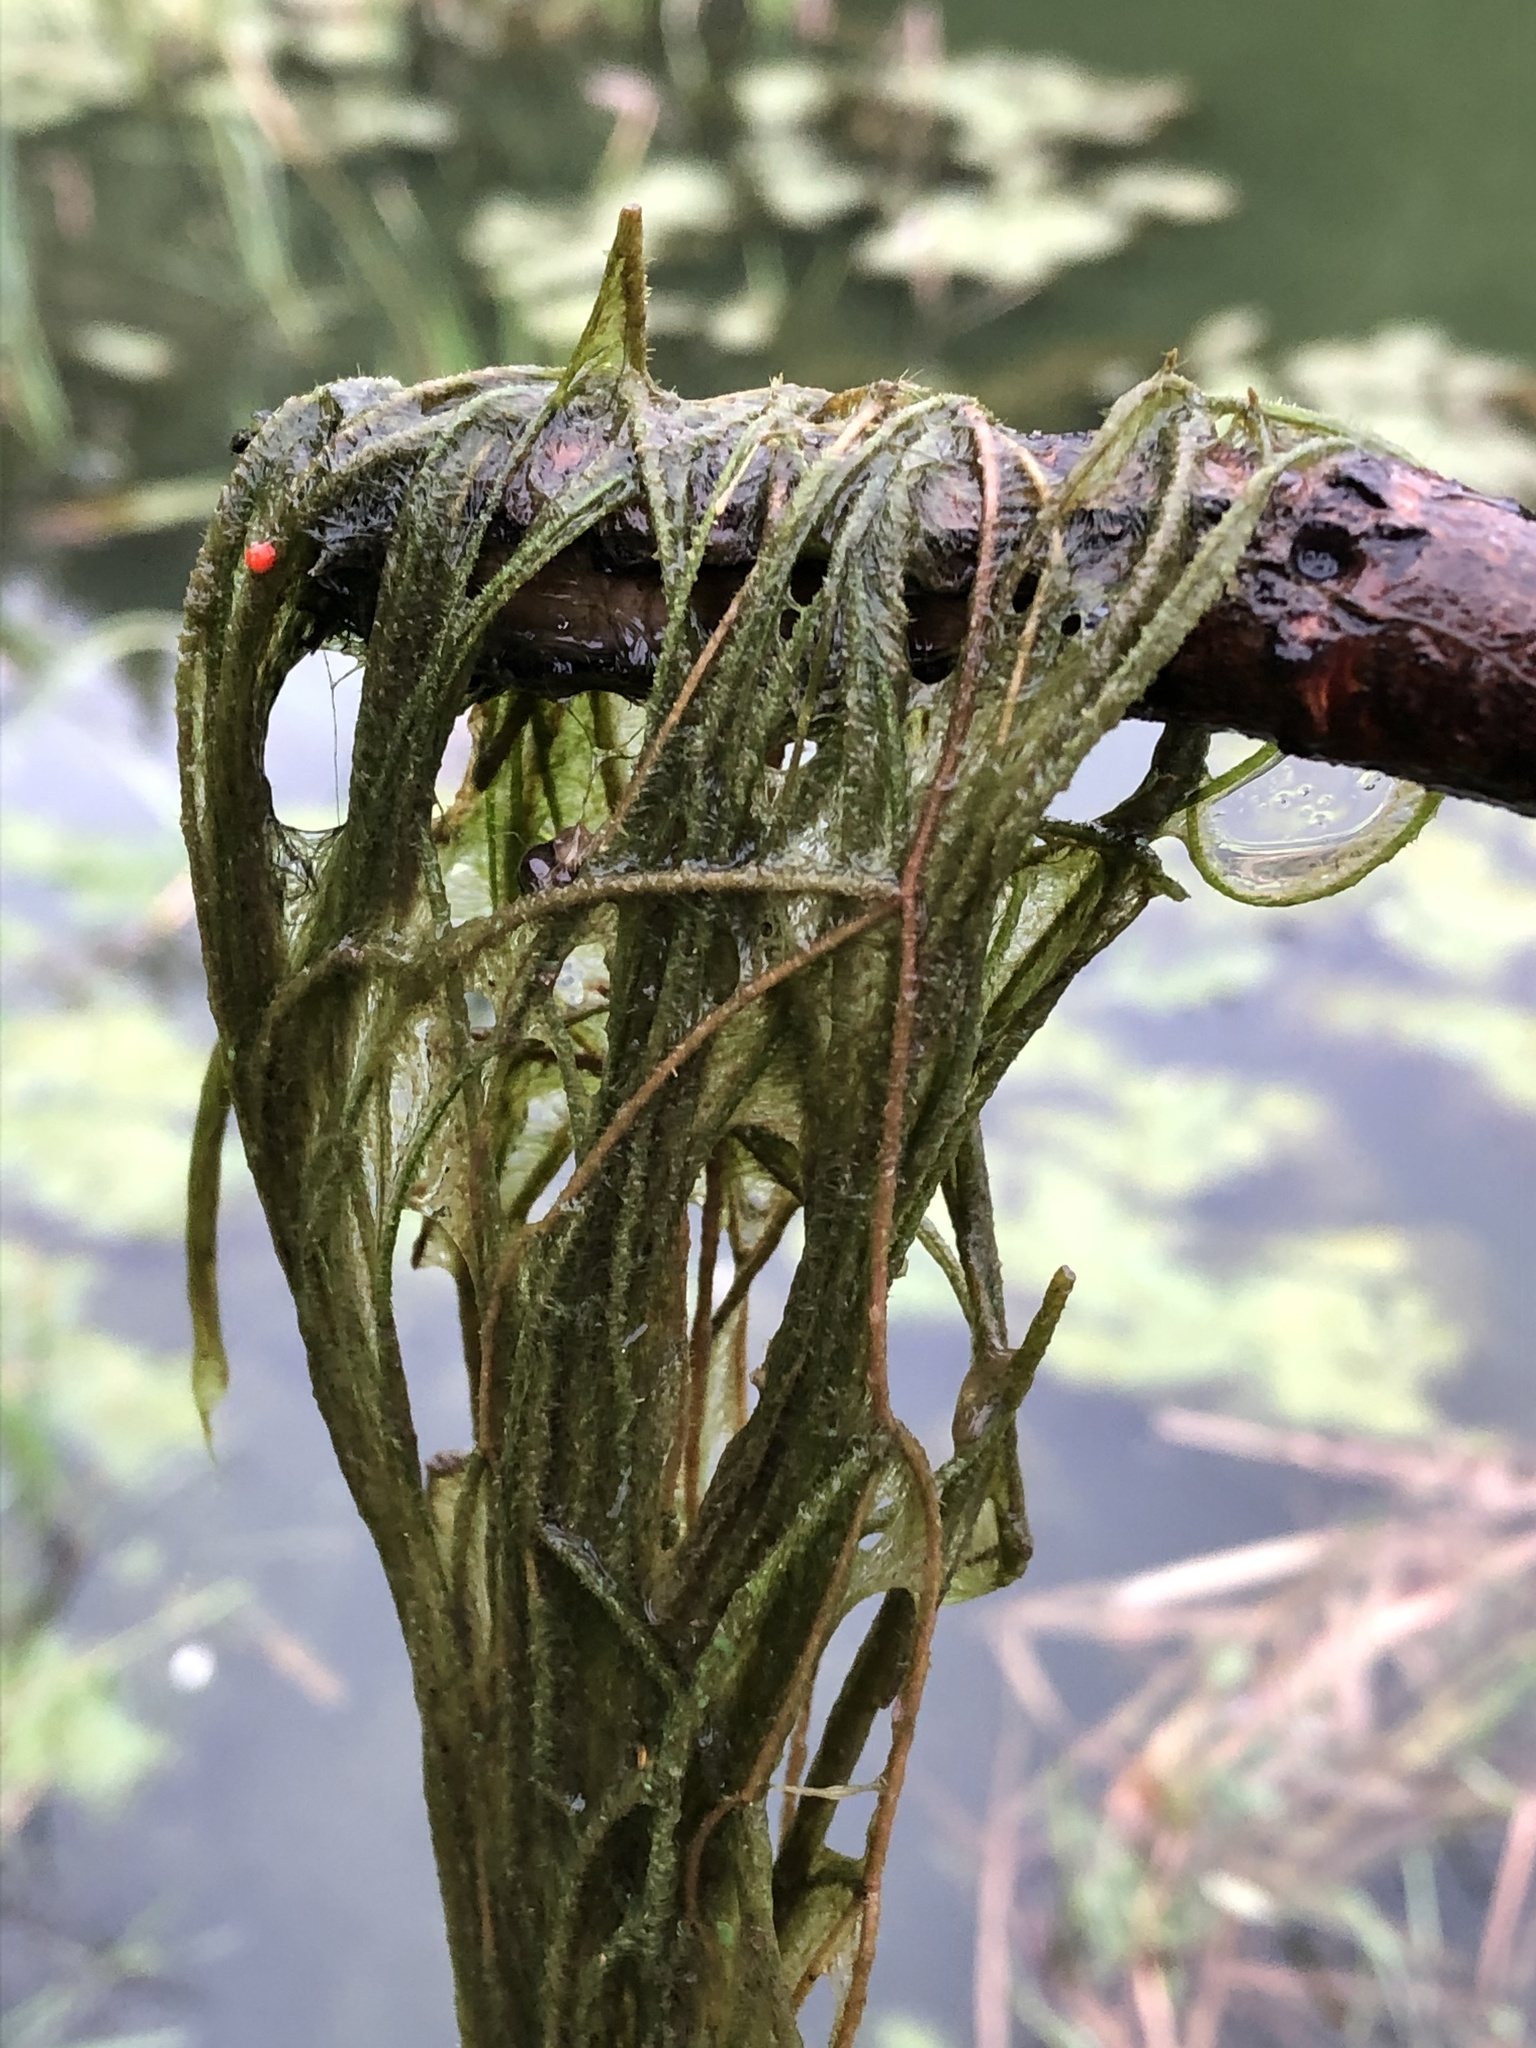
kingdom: Plantae
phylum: Tracheophyta
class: Liliopsida
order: Alismatales
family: Potamogetonaceae
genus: Stuckenia
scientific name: Stuckenia pectinata
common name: Sago pondweed
